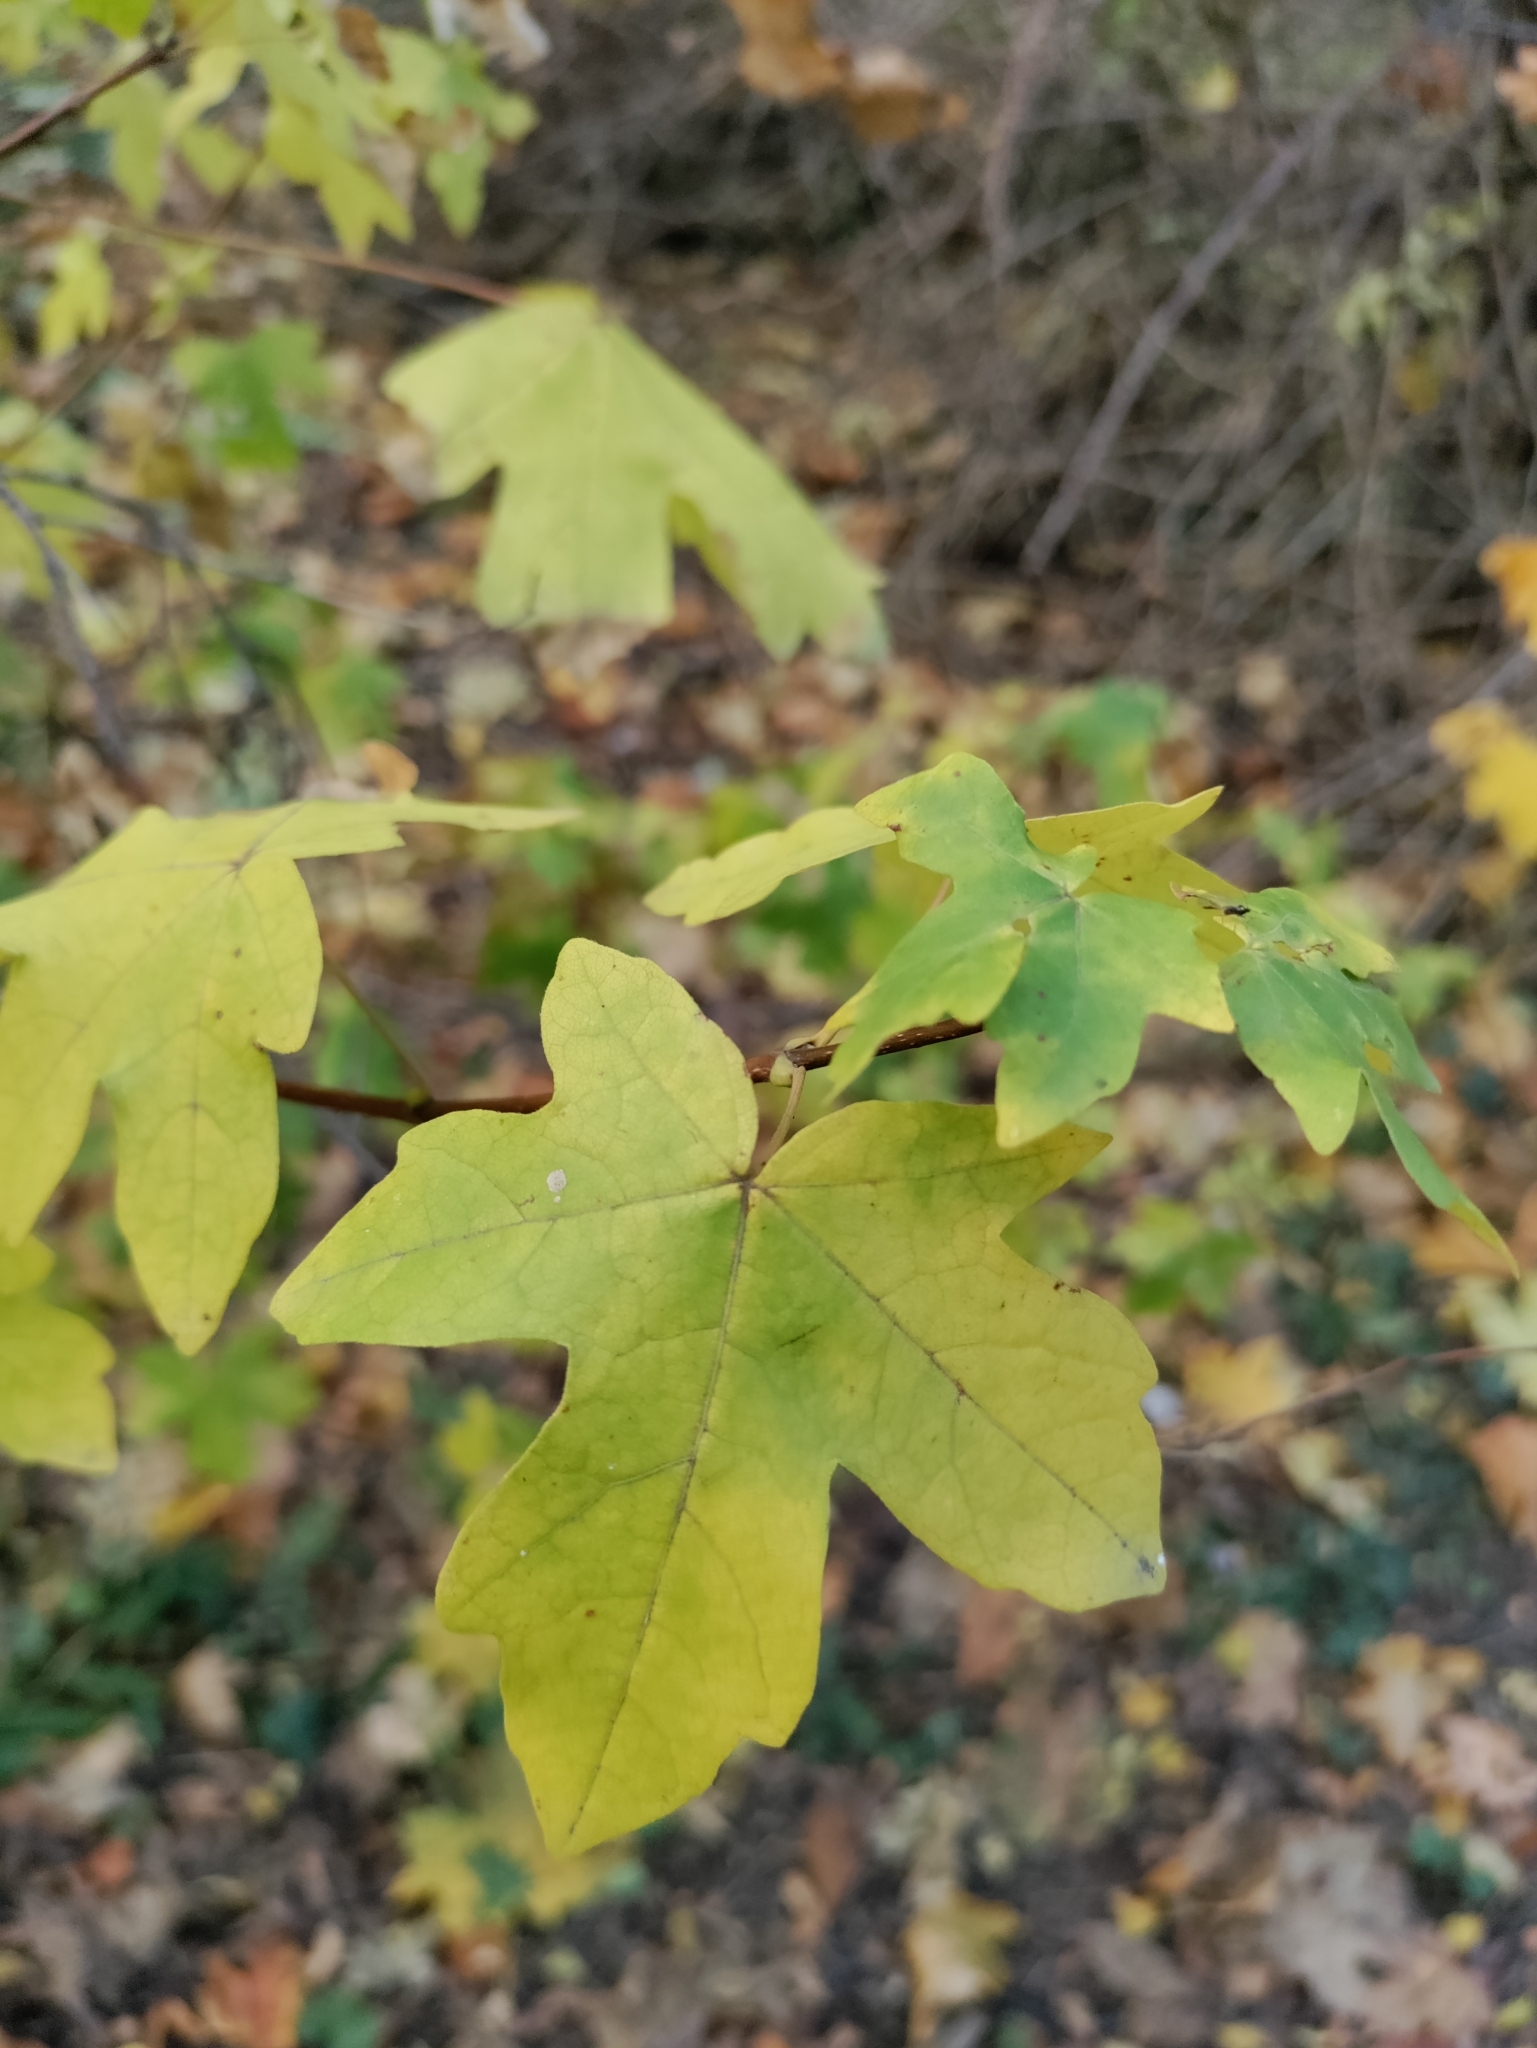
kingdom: Plantae
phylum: Tracheophyta
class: Magnoliopsida
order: Sapindales
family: Sapindaceae
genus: Acer
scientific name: Acer campestre
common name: Field maple
